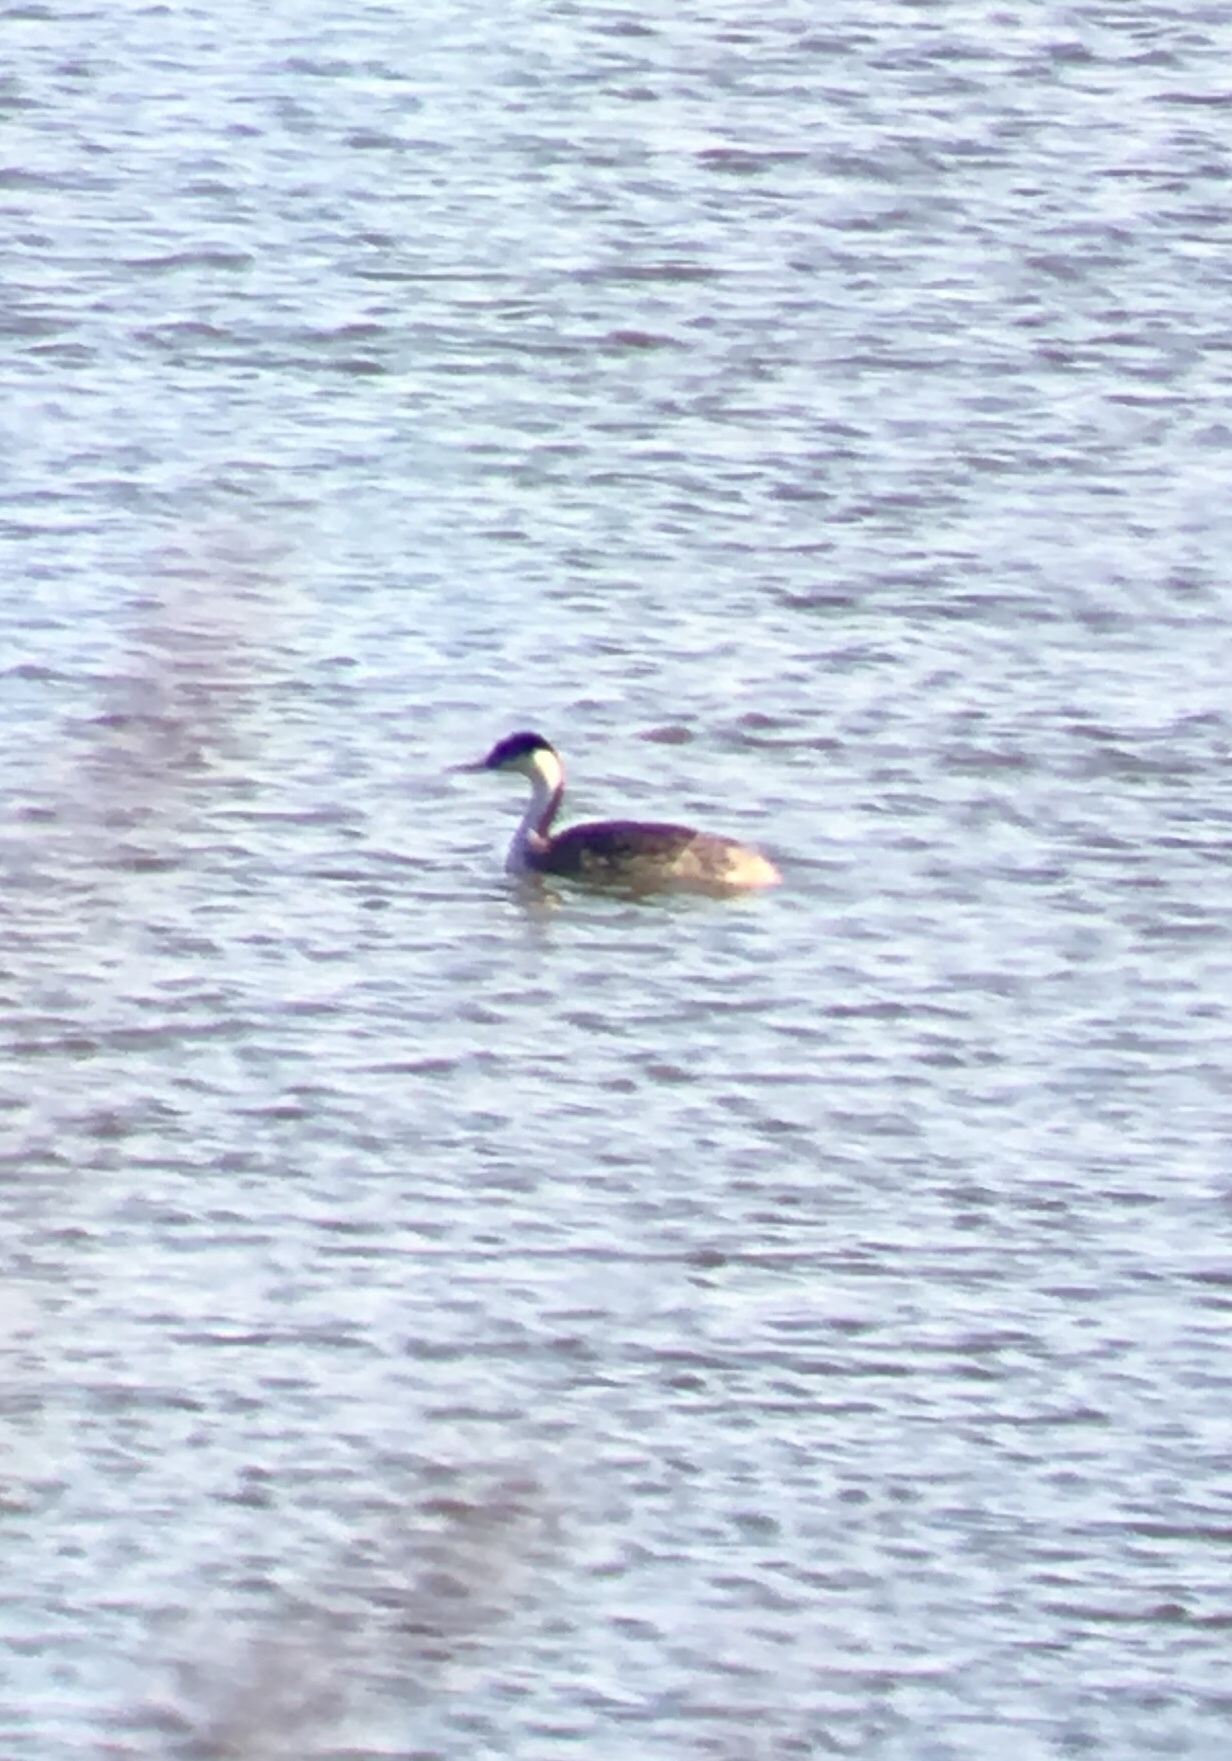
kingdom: Animalia
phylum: Chordata
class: Aves
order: Podicipediformes
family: Podicipedidae
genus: Aechmophorus
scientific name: Aechmophorus occidentalis
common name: Western grebe
